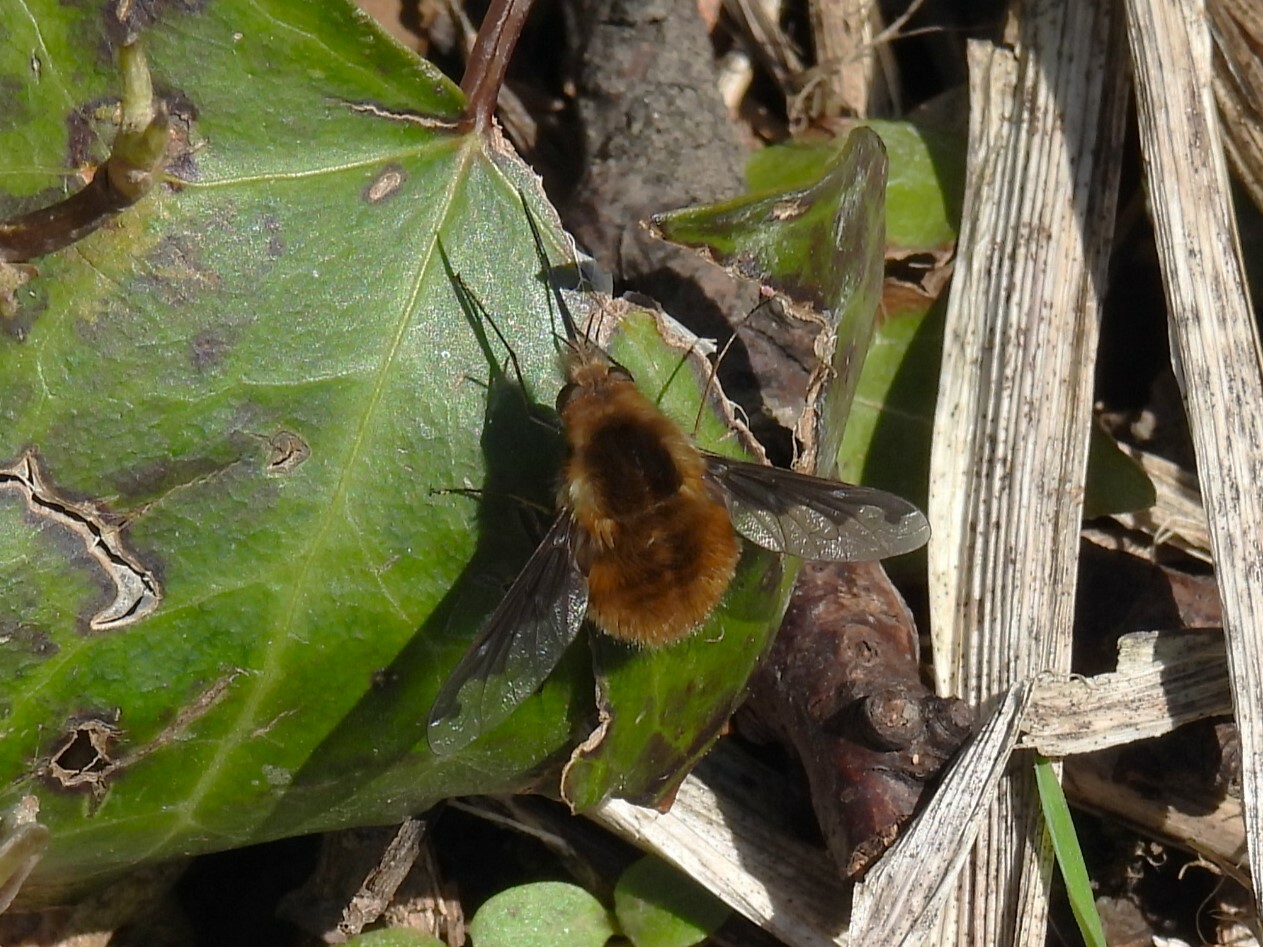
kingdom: Animalia
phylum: Arthropoda
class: Insecta
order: Diptera
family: Bombyliidae
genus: Bombylius
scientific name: Bombylius major
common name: Bee fly
